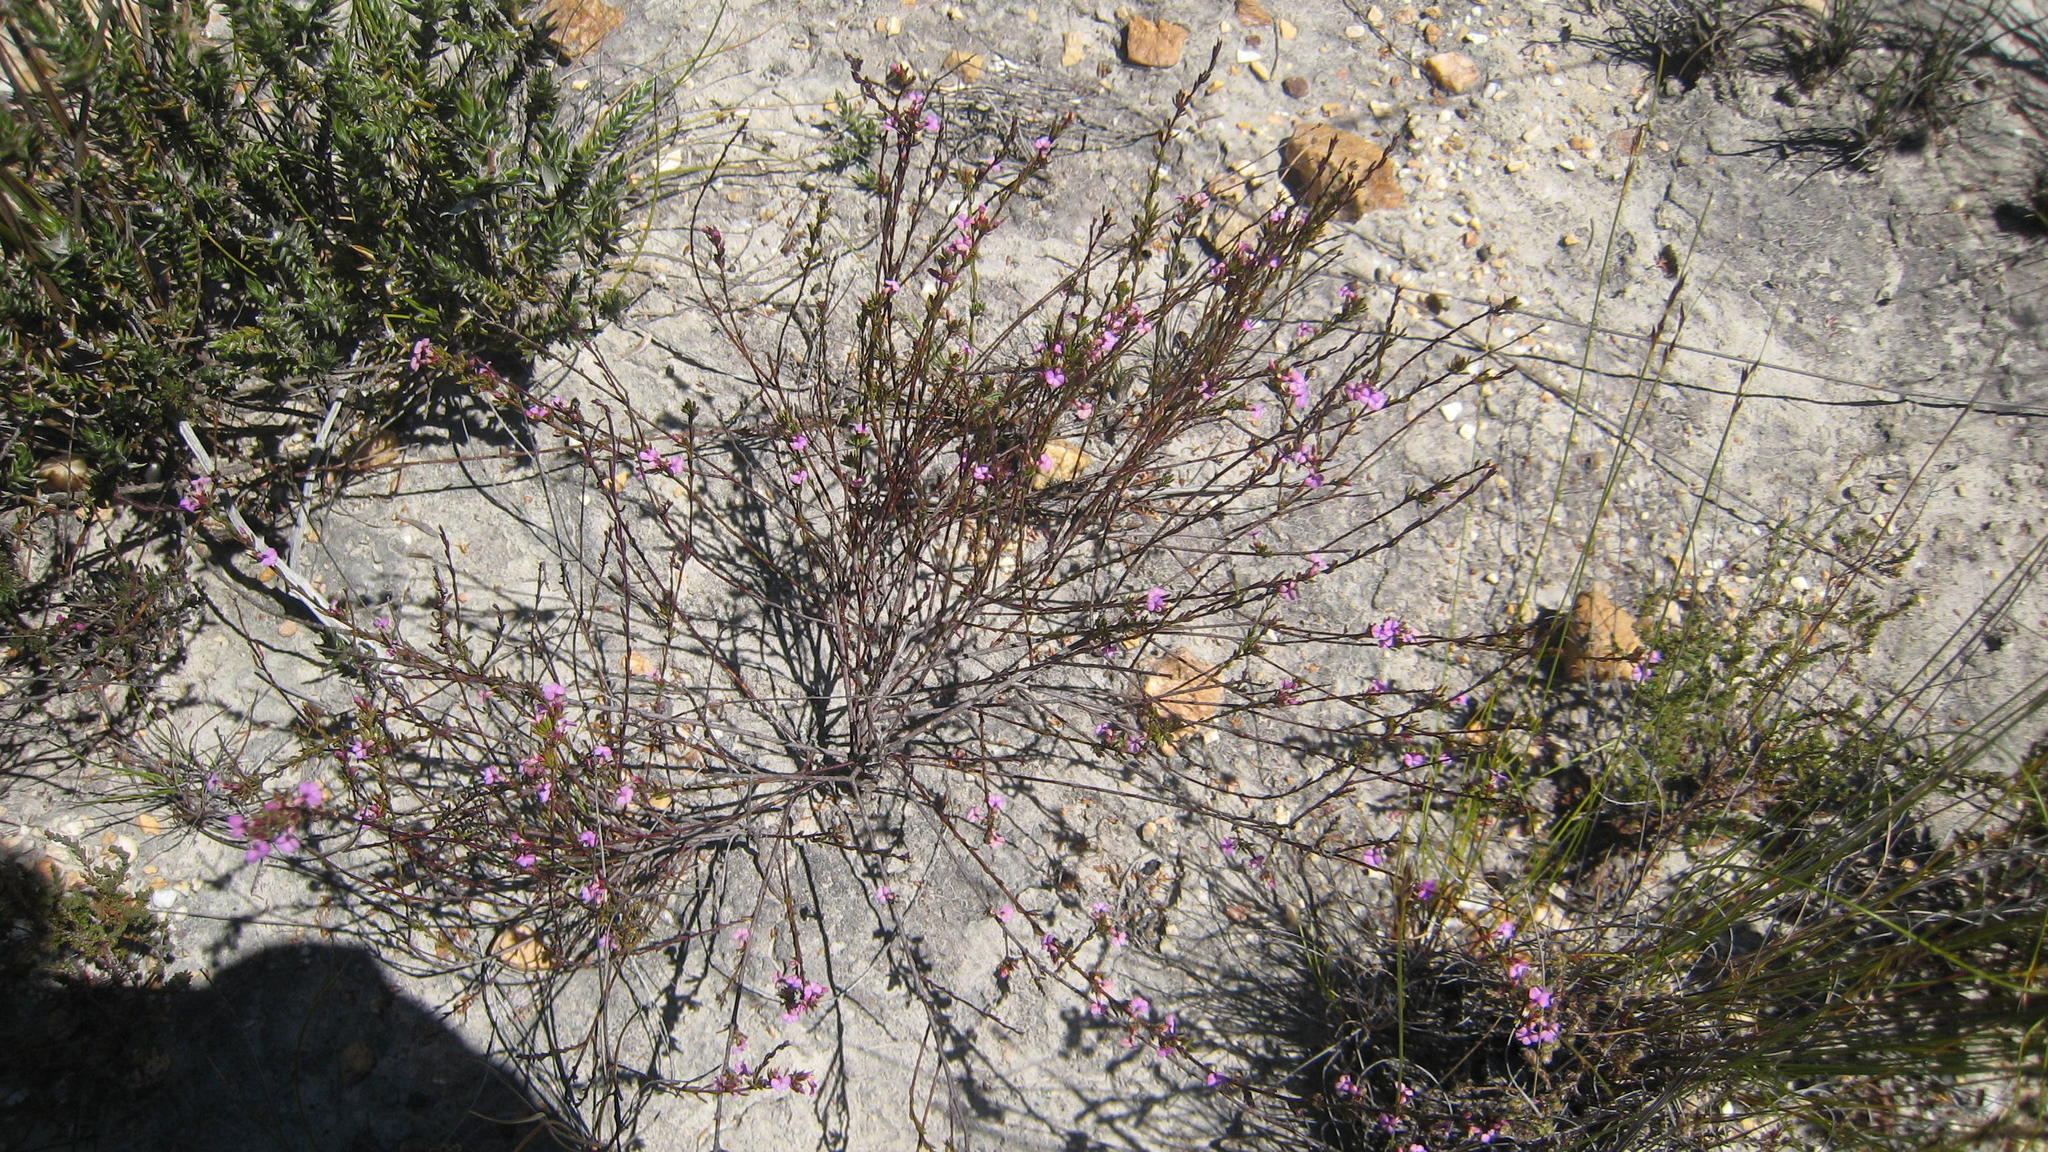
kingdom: Plantae
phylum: Tracheophyta
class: Magnoliopsida
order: Fabales
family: Polygalaceae
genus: Muraltia
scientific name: Muraltia leptorhiza
